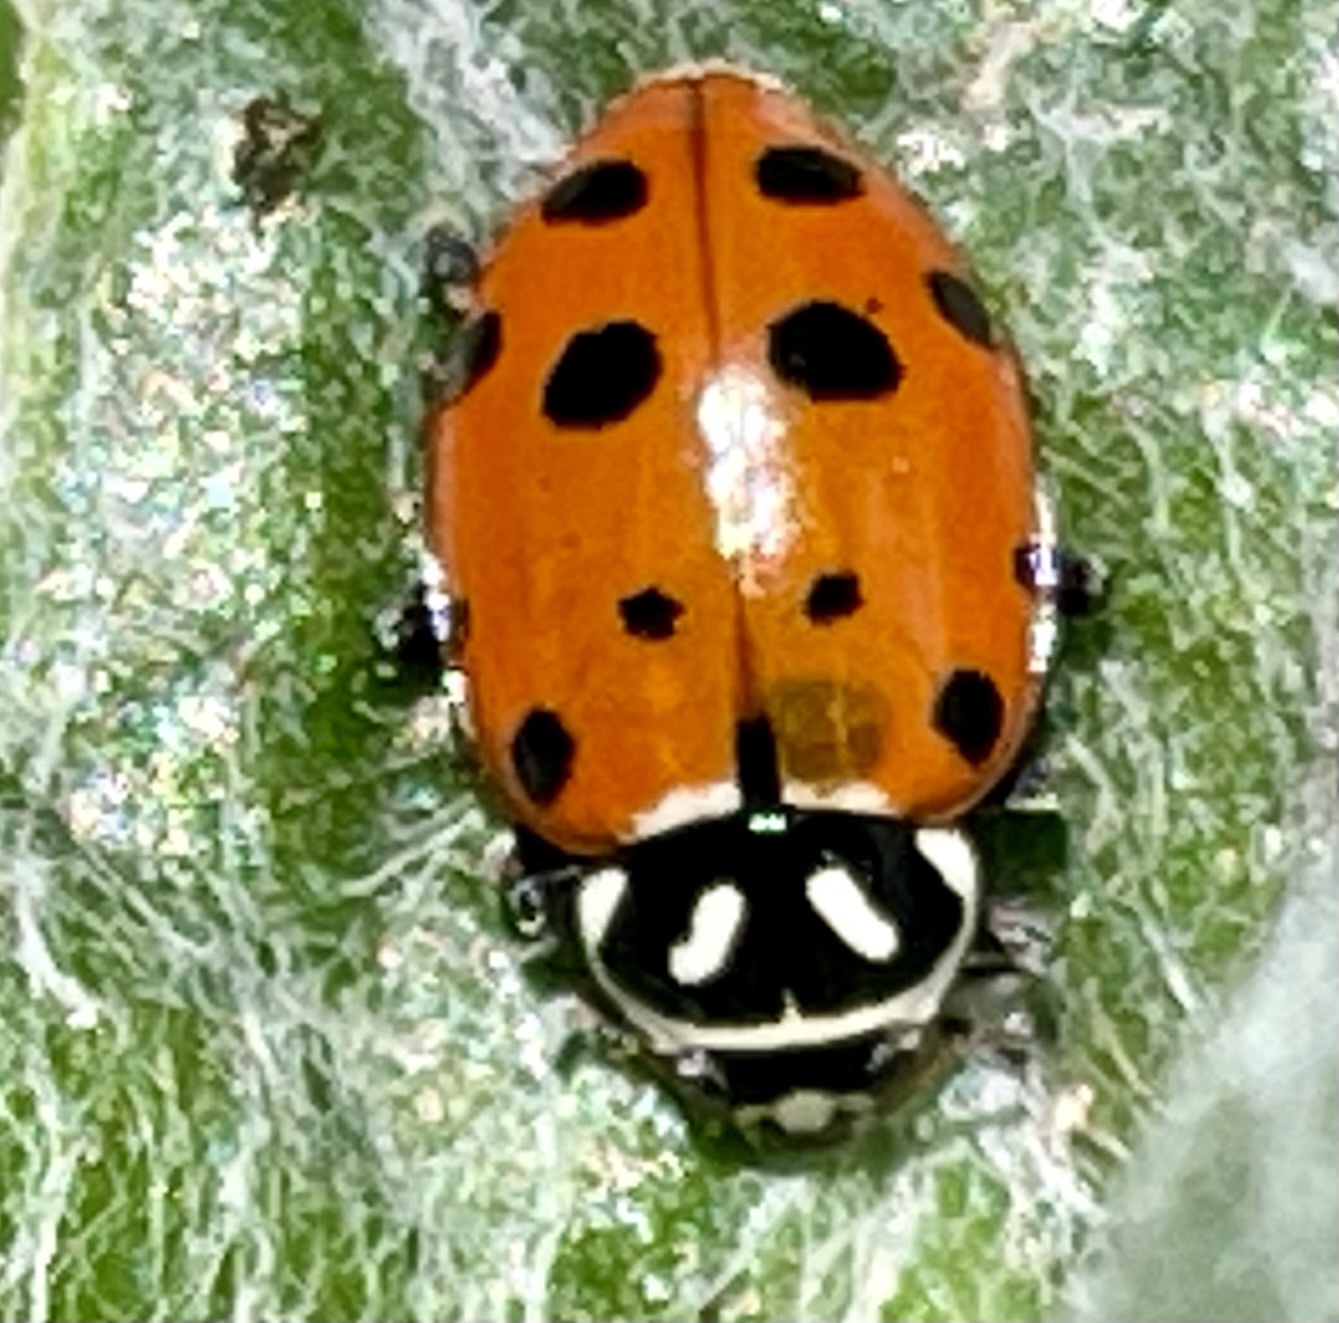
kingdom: Animalia
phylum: Arthropoda
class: Insecta
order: Coleoptera
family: Coccinellidae
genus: Hippodamia
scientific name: Hippodamia convergens
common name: Convergent lady beetle
